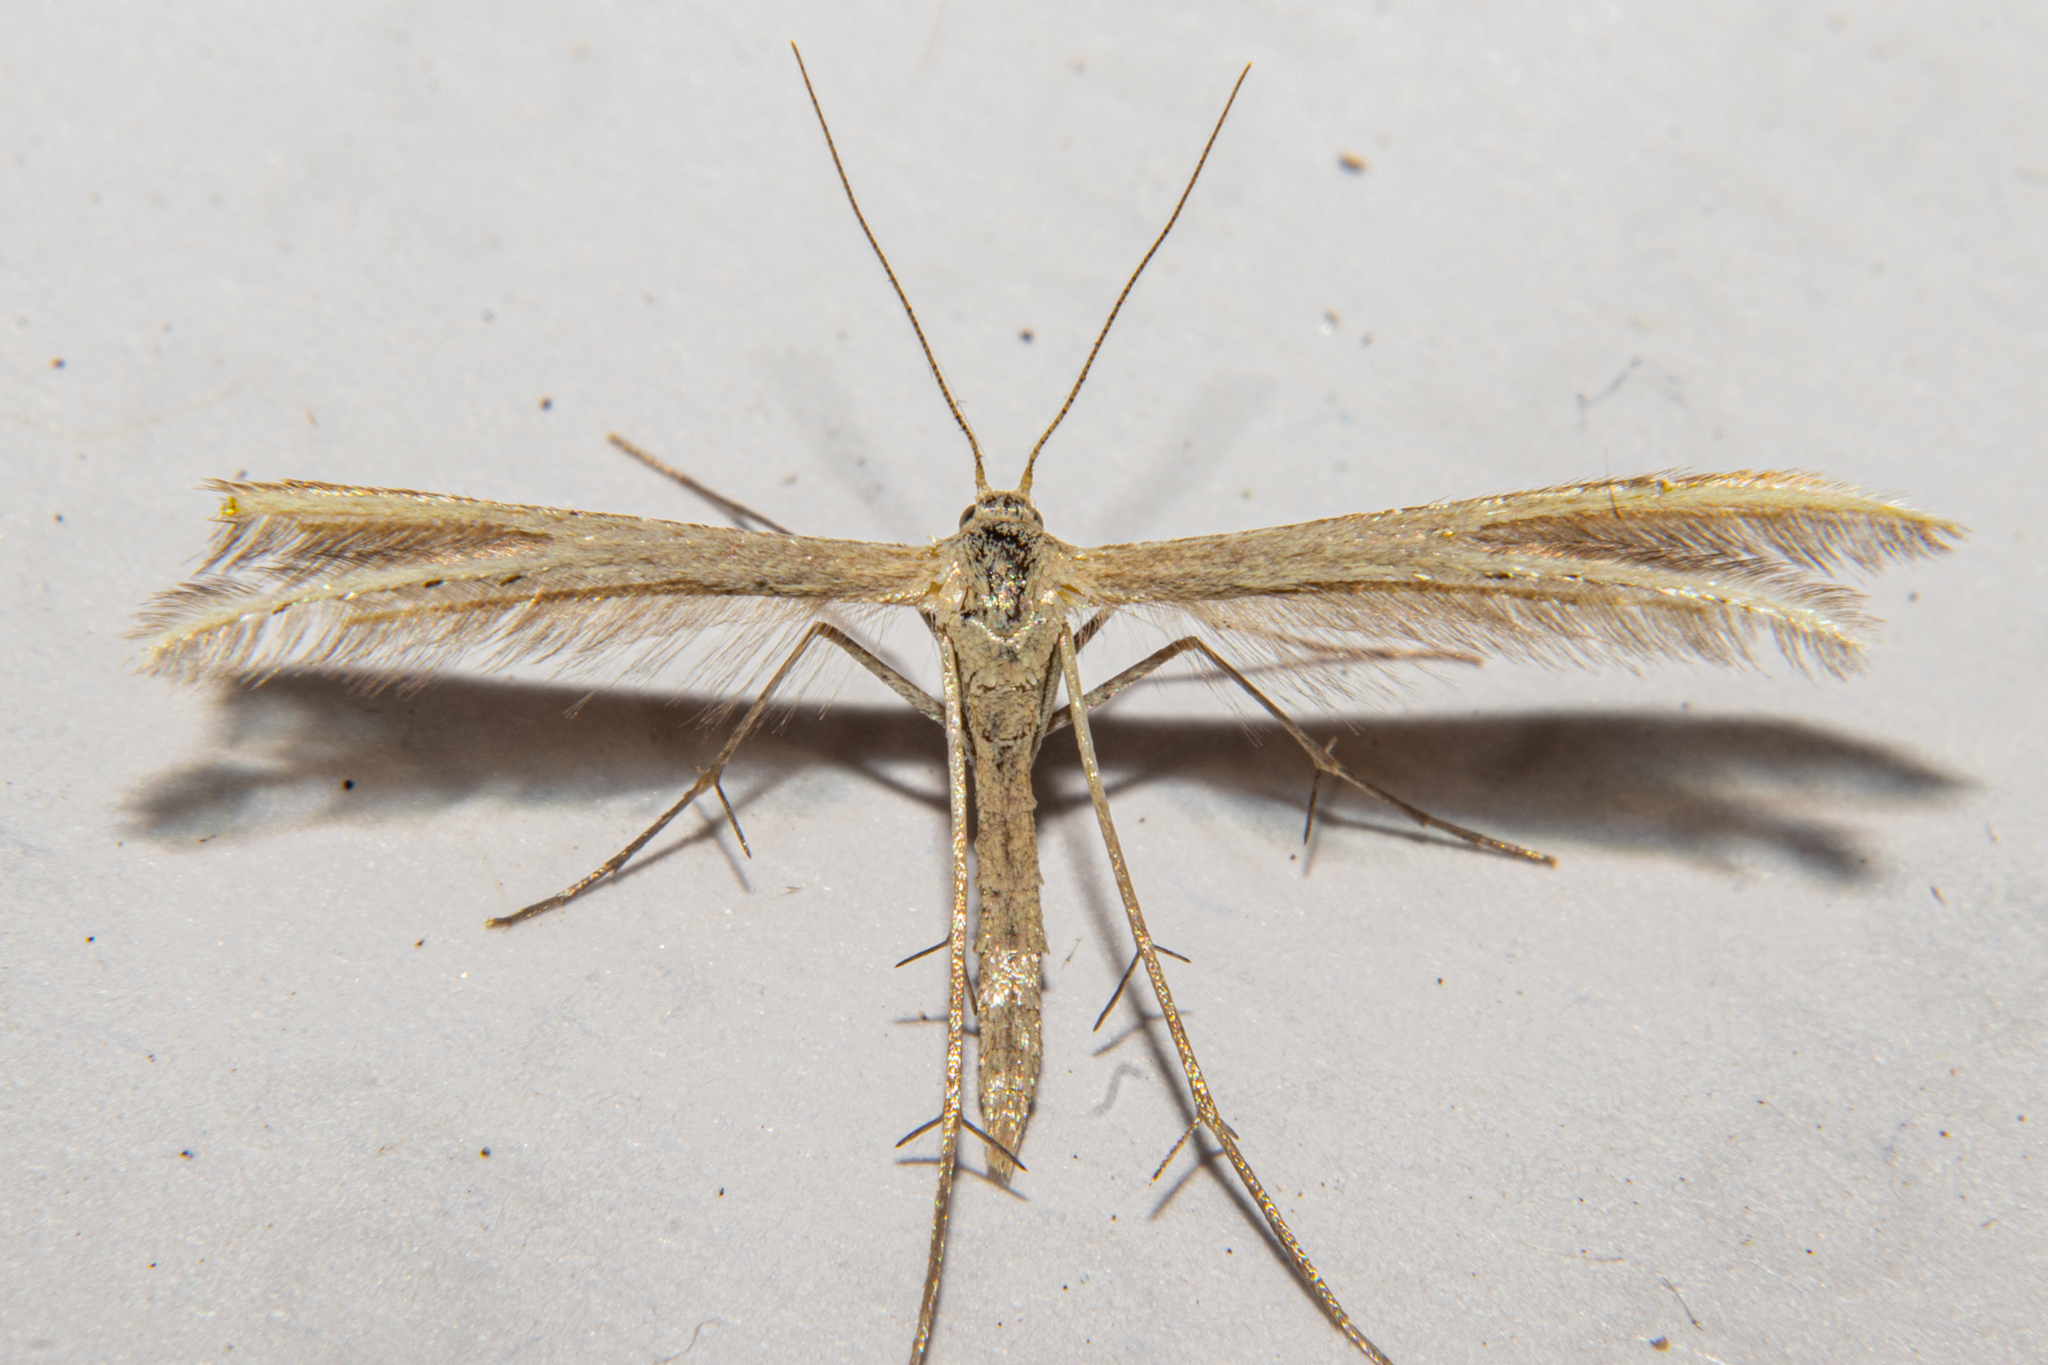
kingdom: Animalia
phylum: Arthropoda
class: Insecta
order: Lepidoptera
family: Pterophoridae
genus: Pterophorus
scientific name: Pterophorus innotatalis
